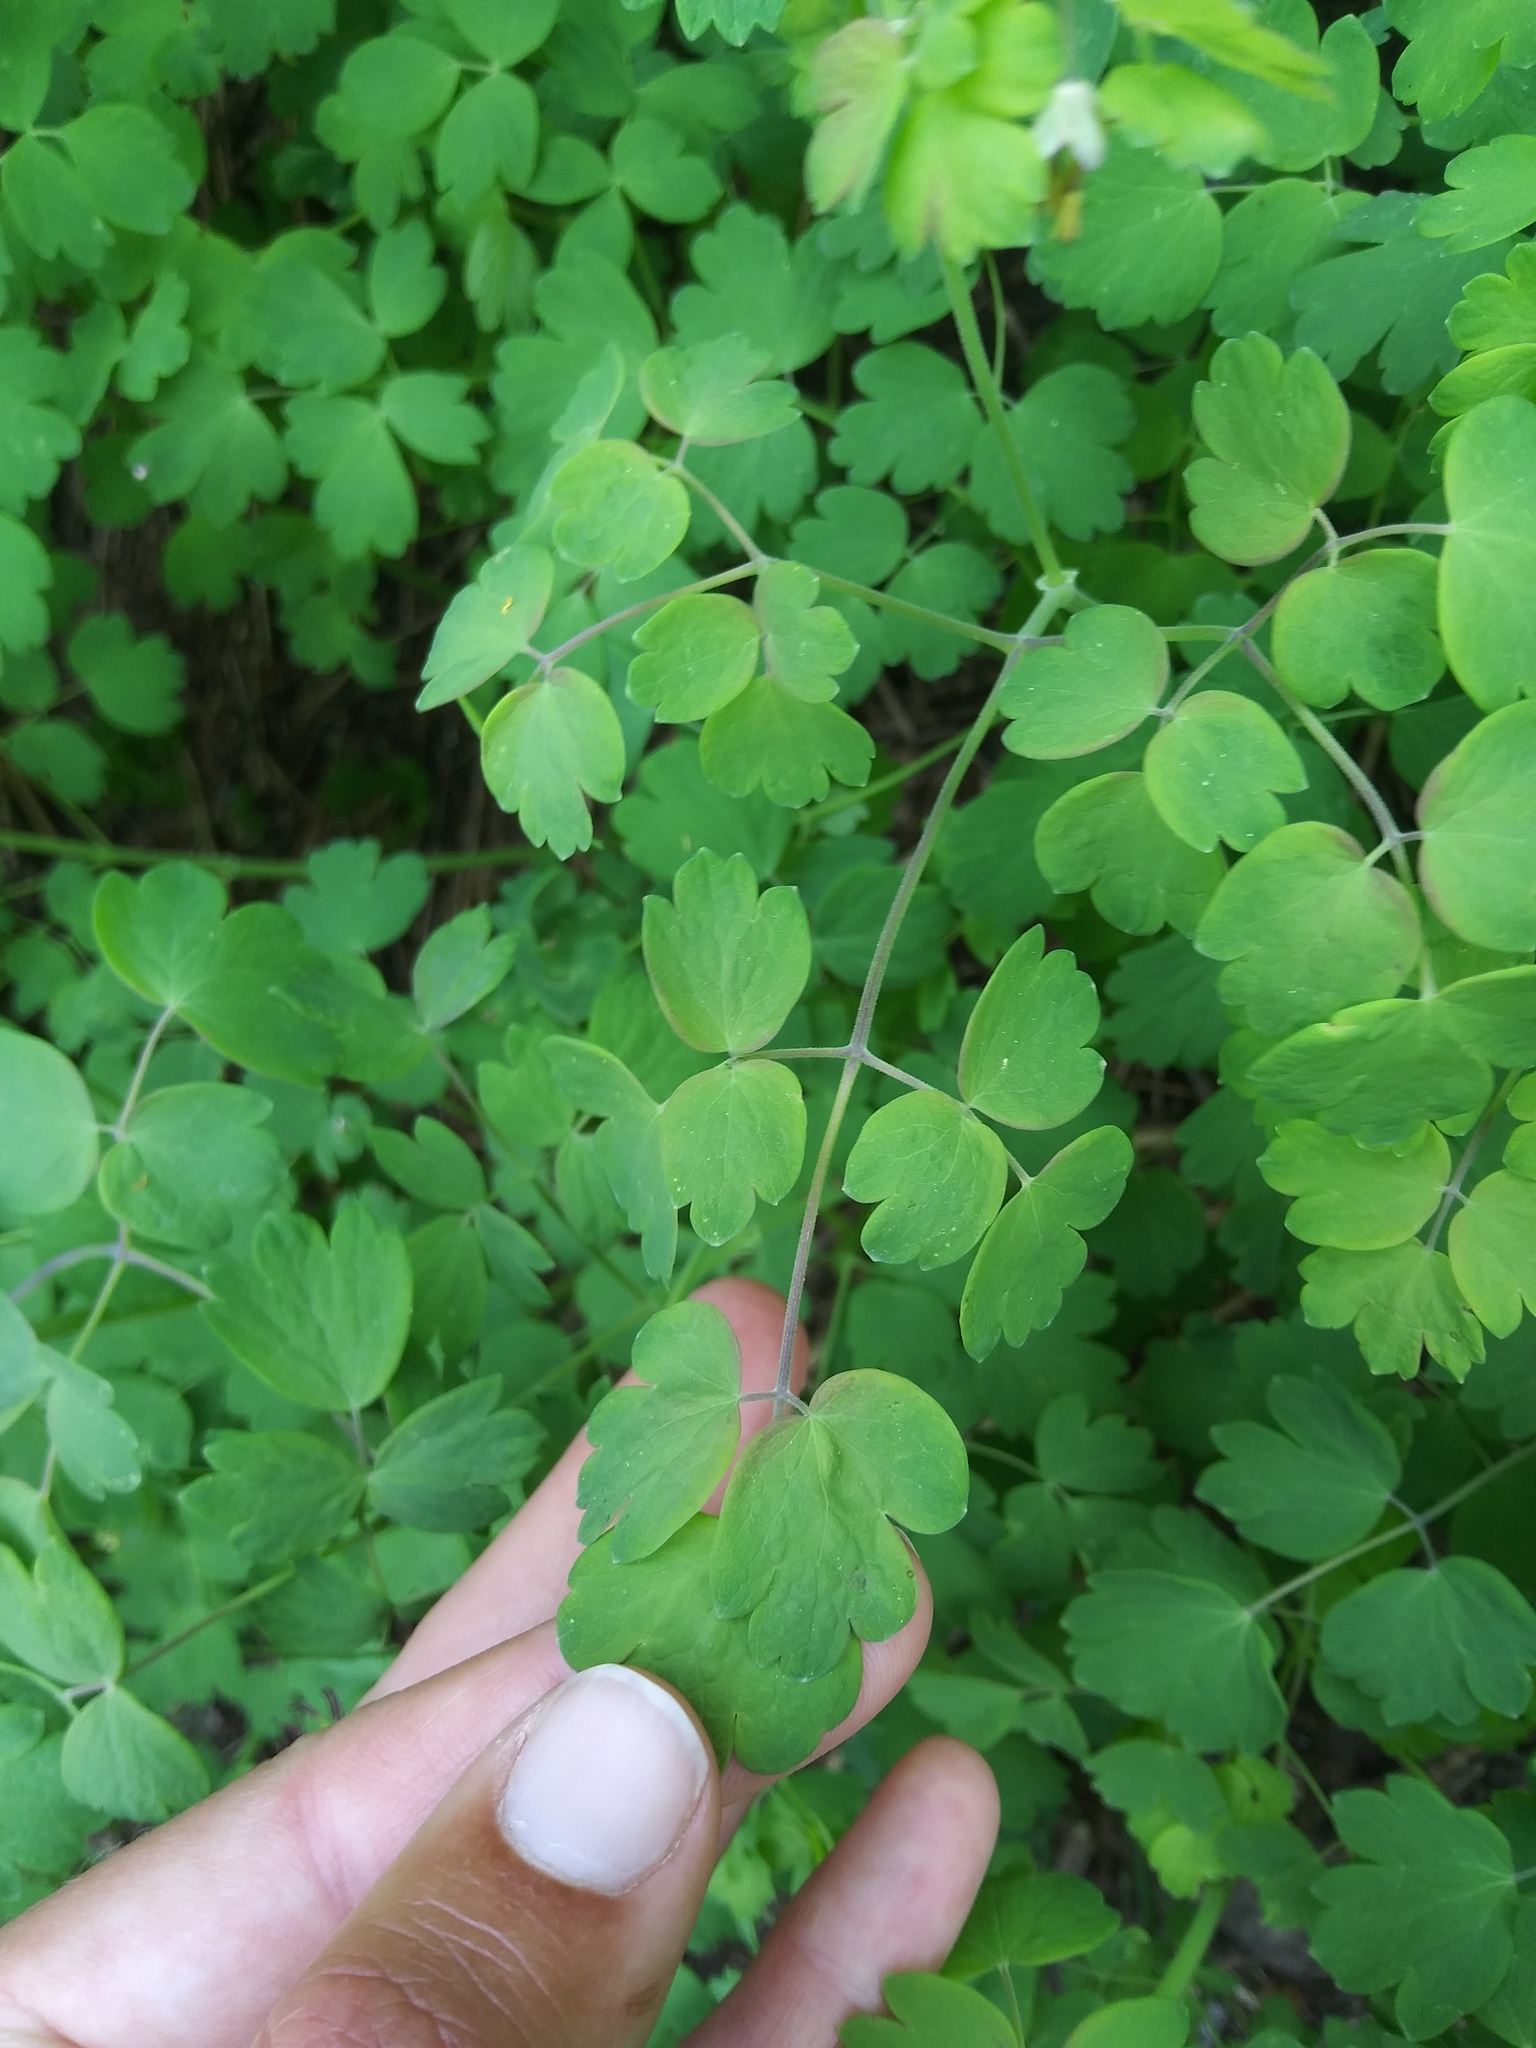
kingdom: Plantae
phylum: Tracheophyta
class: Magnoliopsida
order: Ranunculales
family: Ranunculaceae
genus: Thalictrum
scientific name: Thalictrum occidentale
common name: Western meadow-rue
